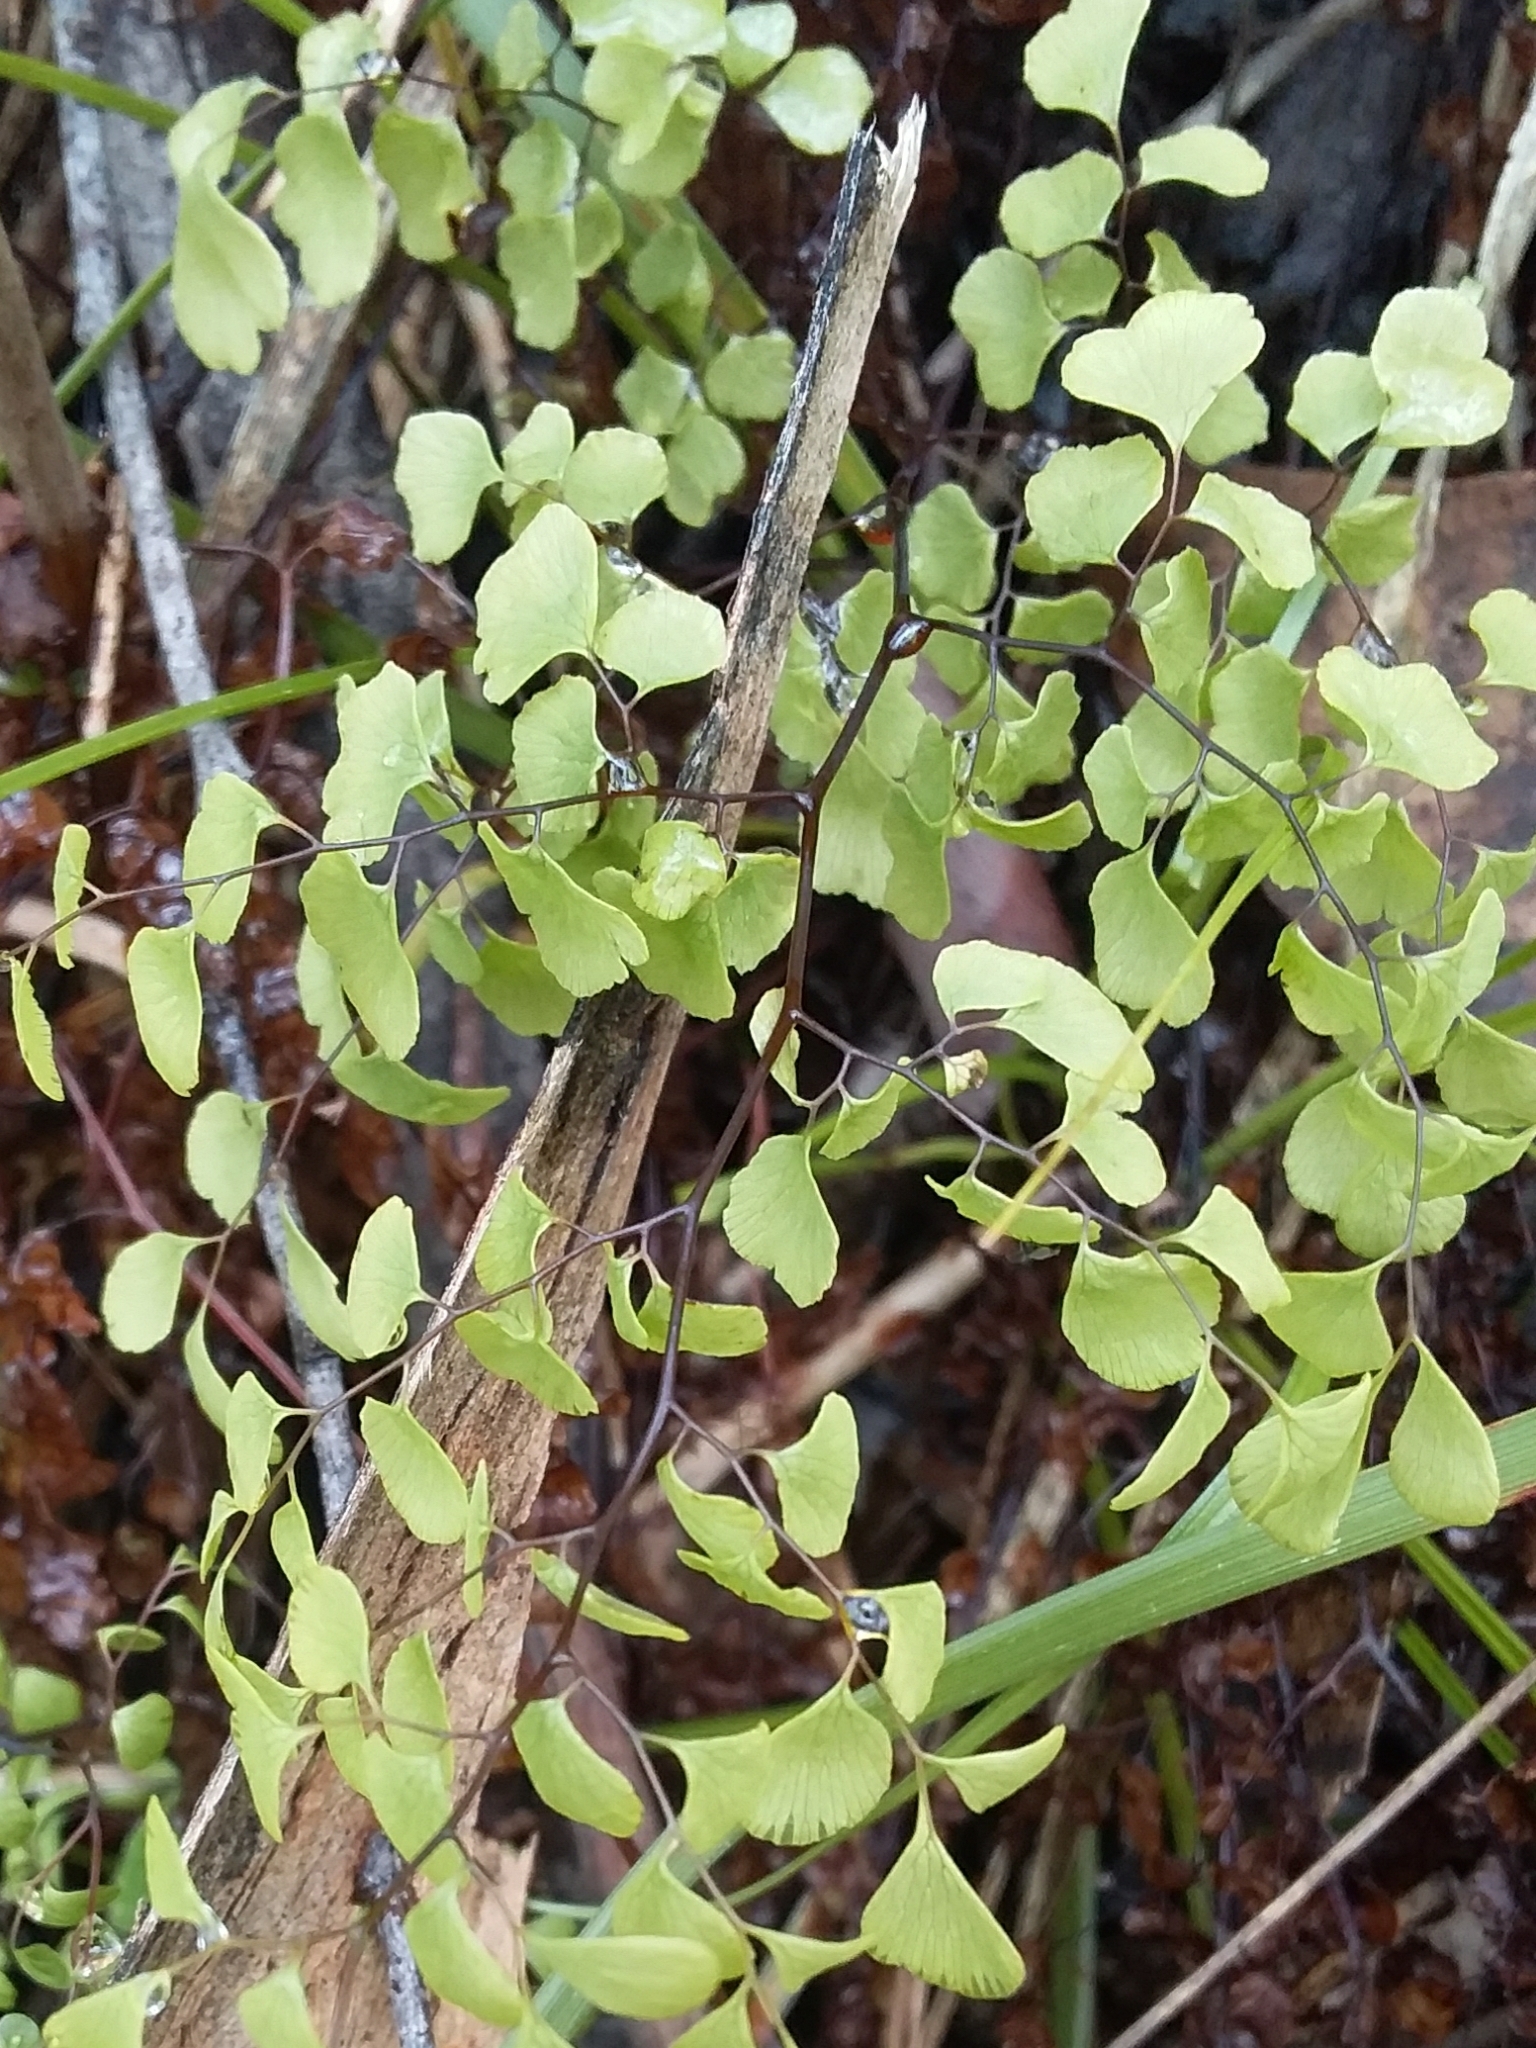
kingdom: Plantae
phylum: Tracheophyta
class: Polypodiopsida
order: Polypodiales
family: Pteridaceae
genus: Adiantum
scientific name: Adiantum aethiopicum
